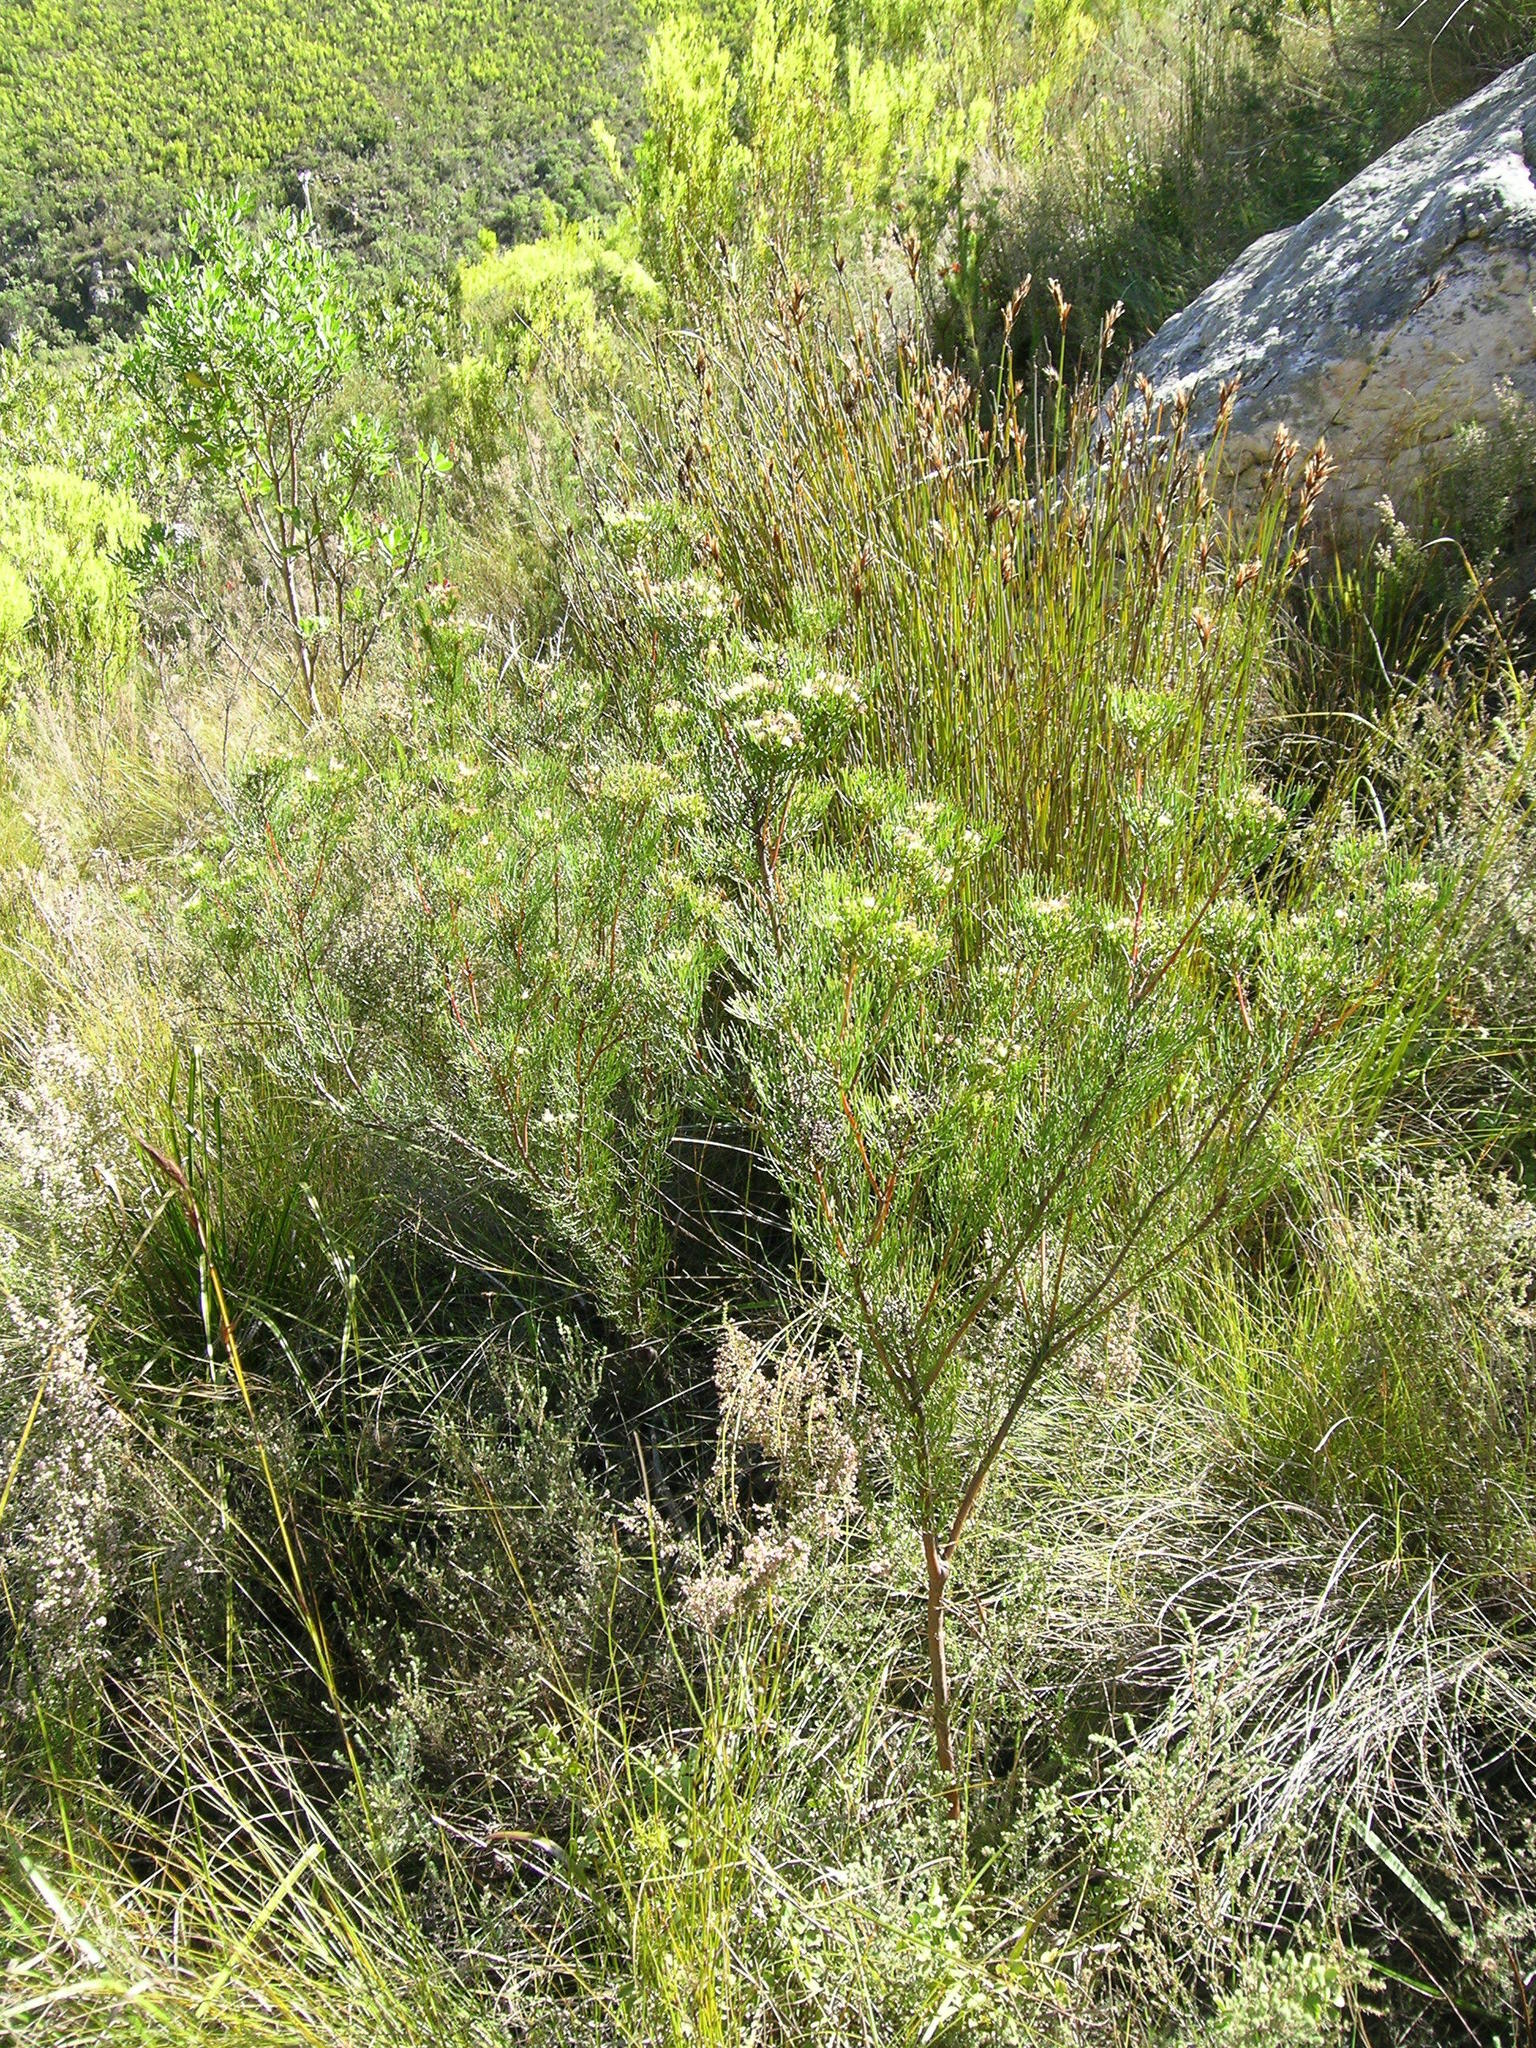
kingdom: Plantae
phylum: Tracheophyta
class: Magnoliopsida
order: Proteales
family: Proteaceae
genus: Serruria
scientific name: Serruria fasciflora
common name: Common pin spiderhead
